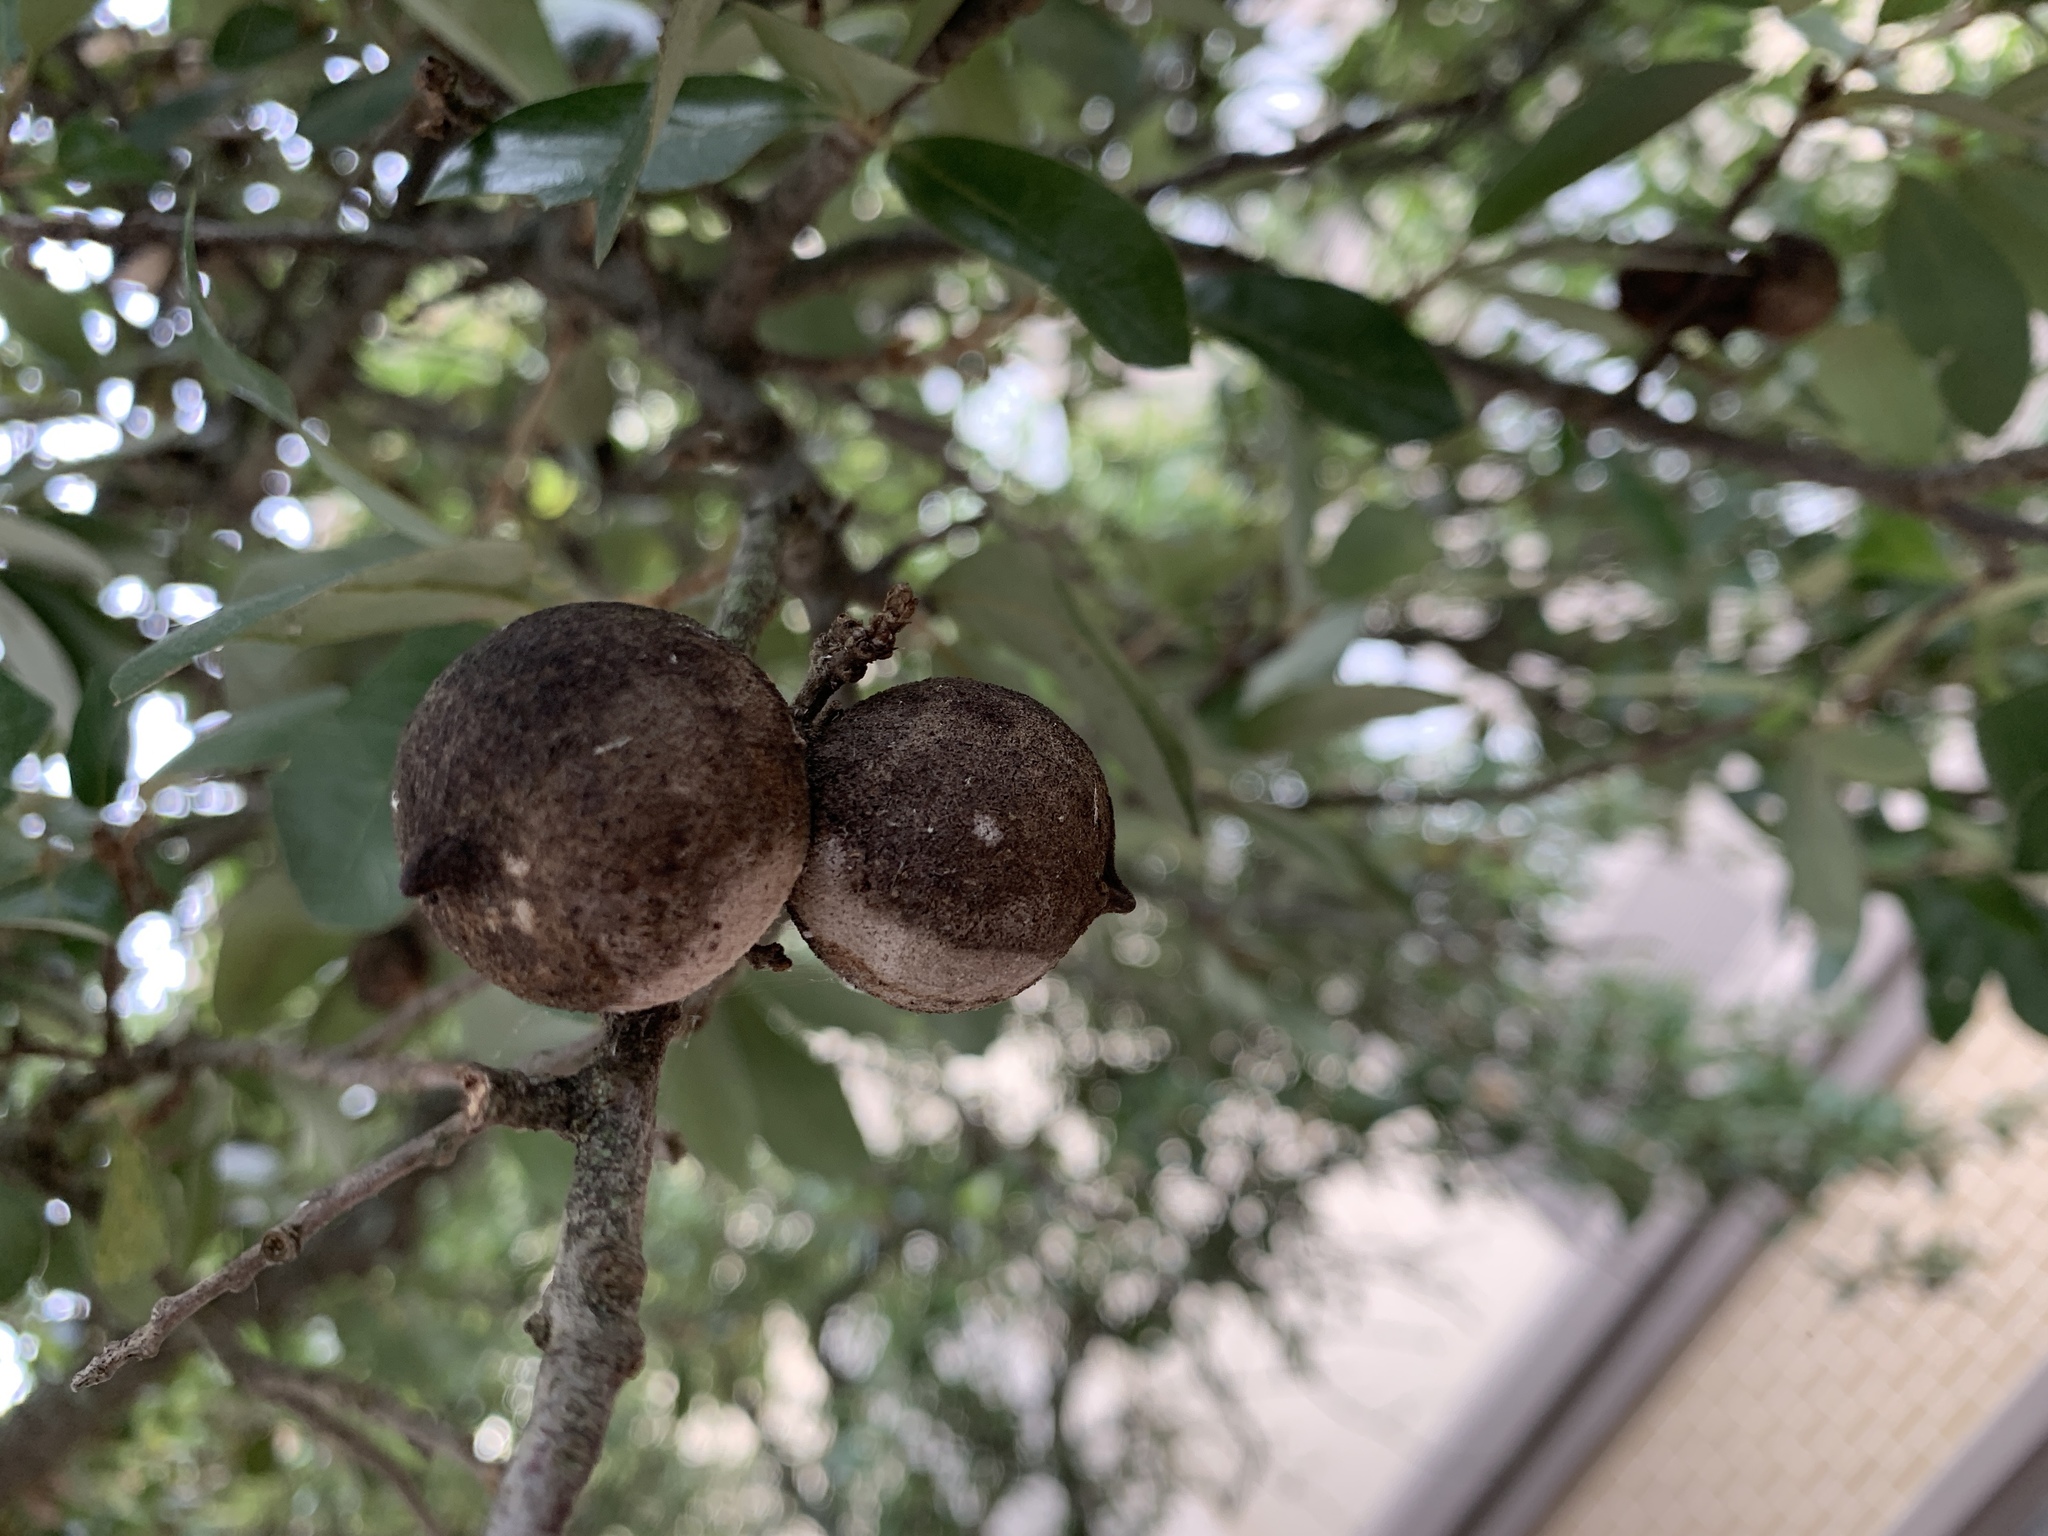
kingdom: Animalia
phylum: Arthropoda
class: Insecta
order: Hymenoptera
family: Cynipidae
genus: Disholcaspis
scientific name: Disholcaspis
